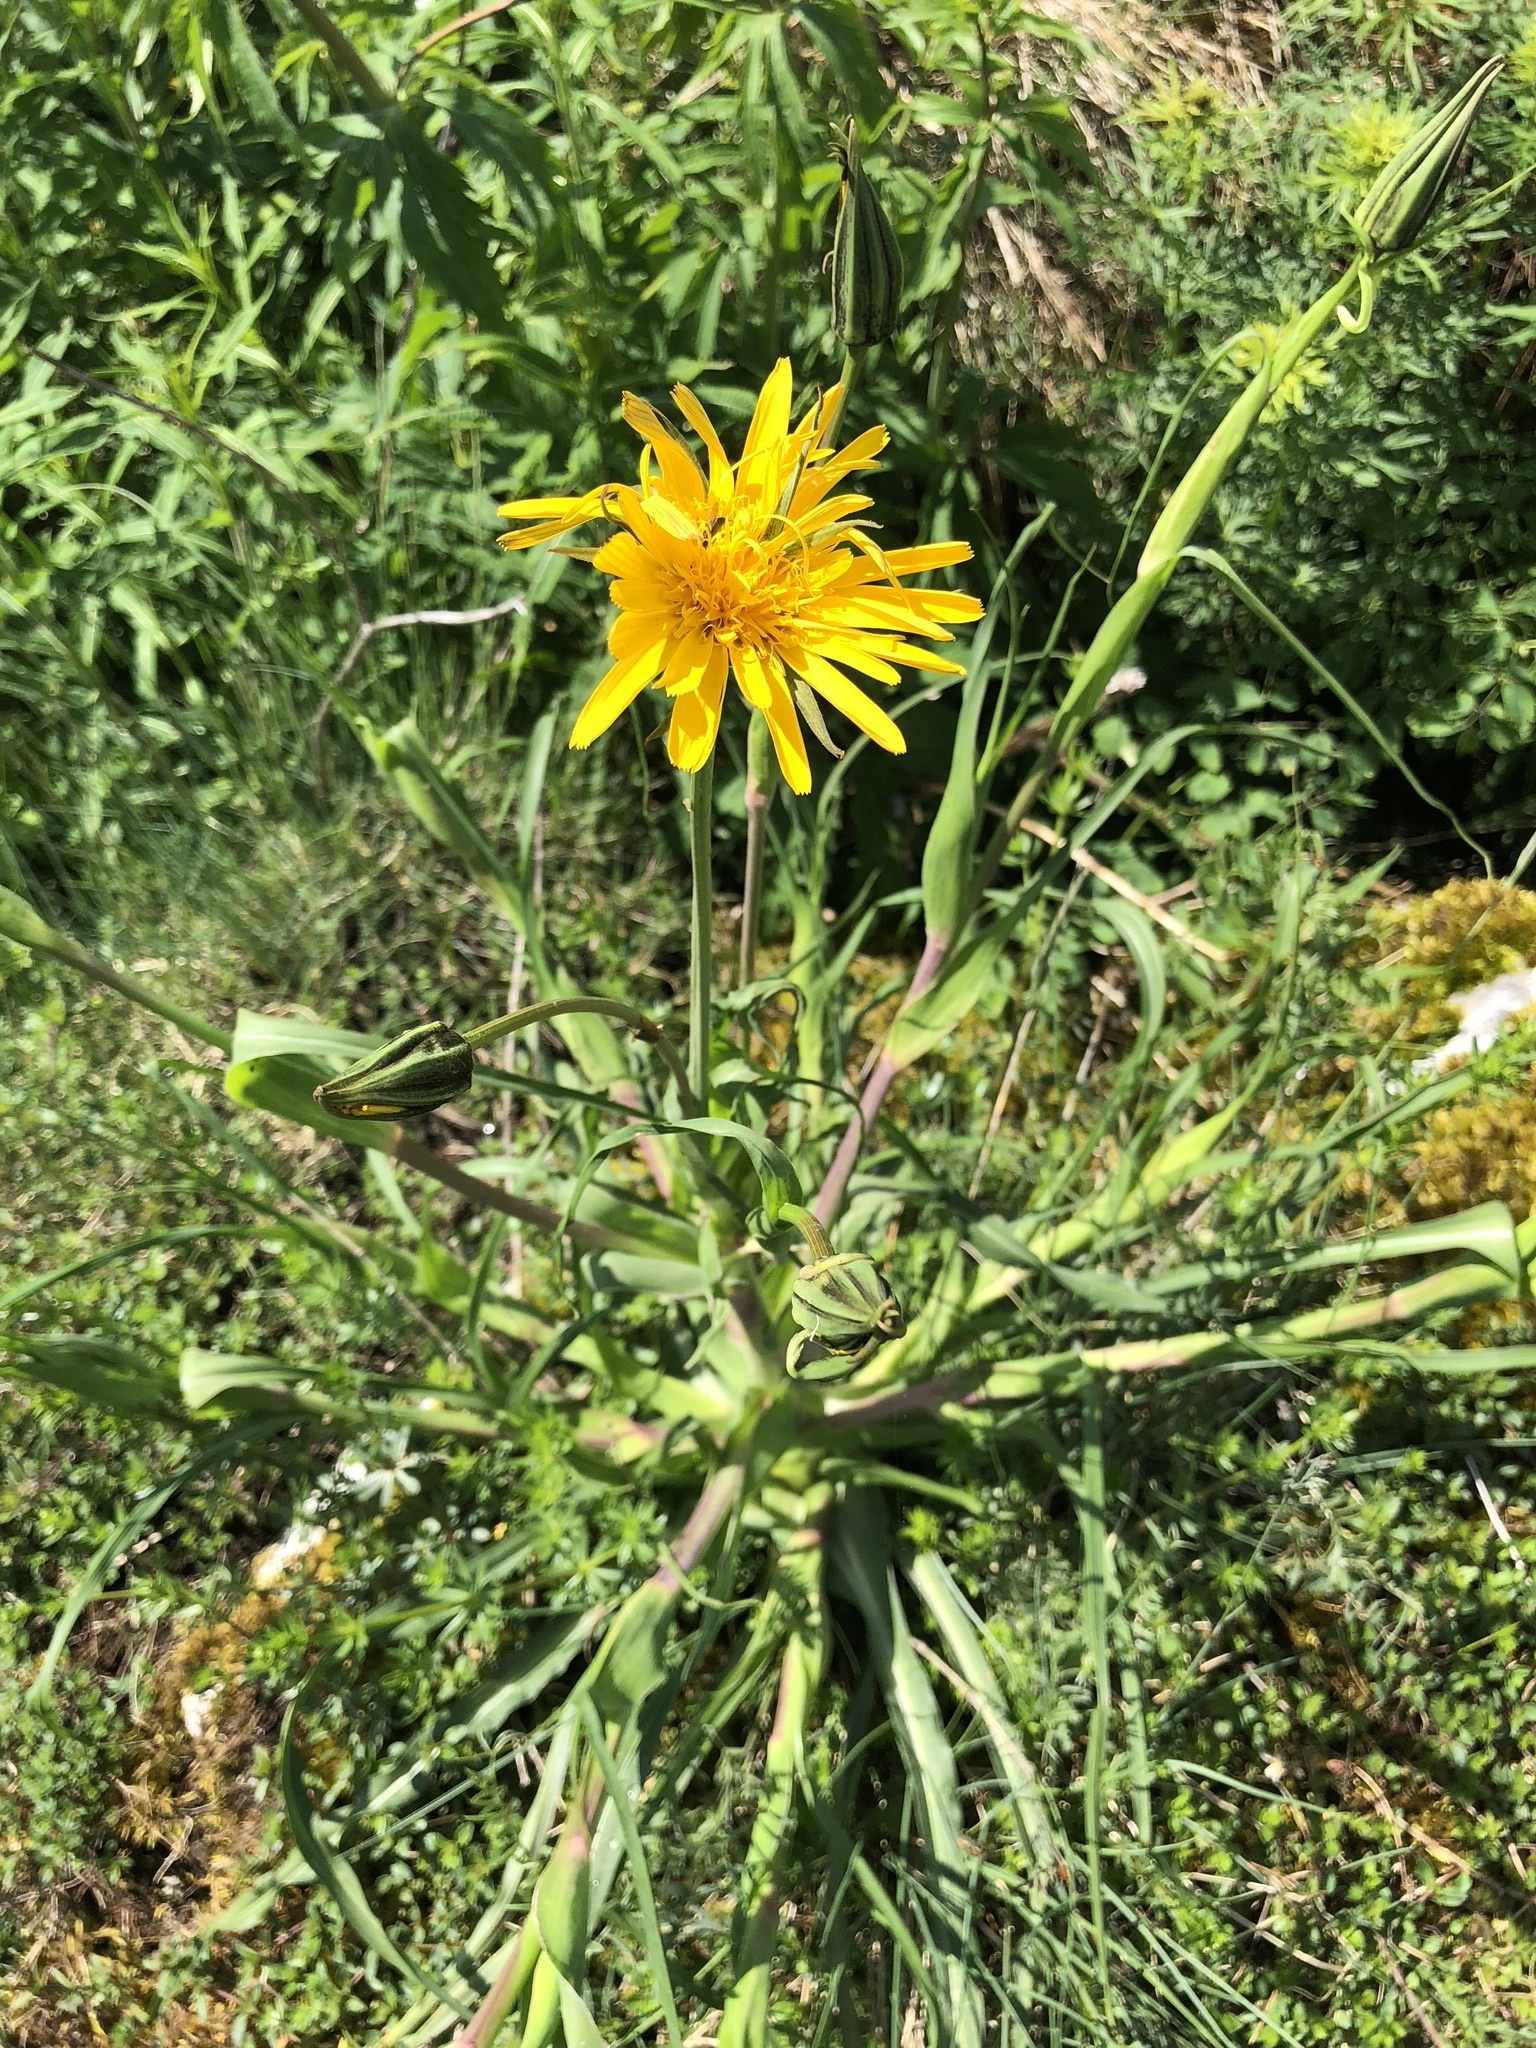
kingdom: Plantae
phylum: Tracheophyta
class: Magnoliopsida
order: Asterales
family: Asteraceae
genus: Tragopogon
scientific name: Tragopogon pratensis
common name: Goat's-beard
